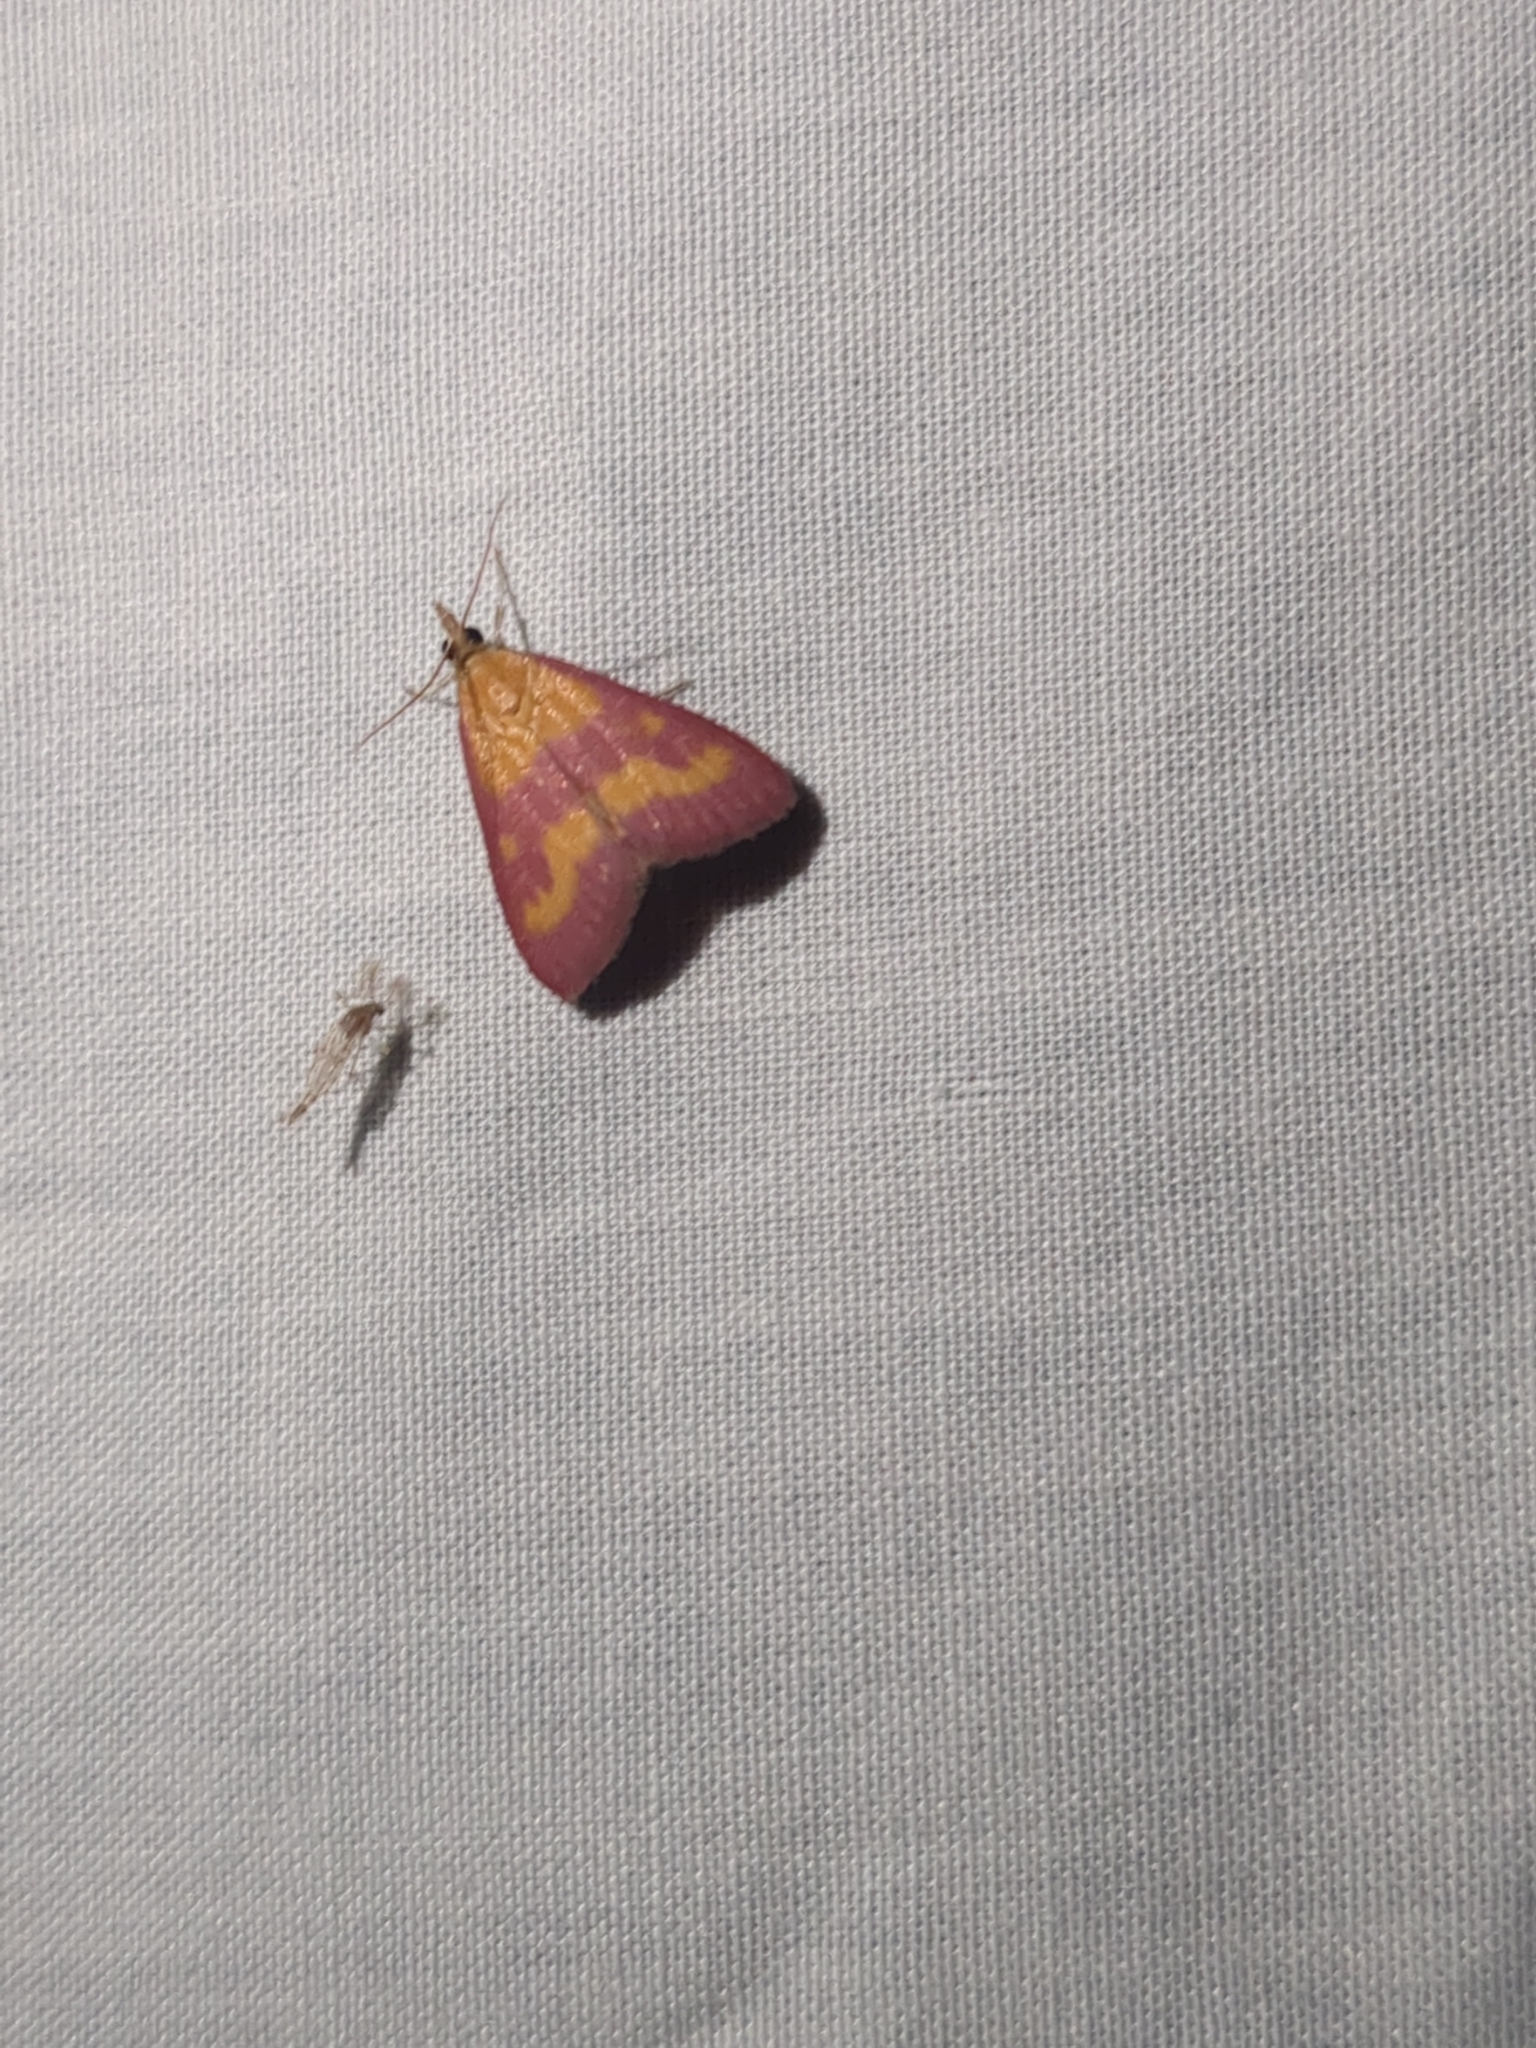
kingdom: Animalia
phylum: Arthropoda
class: Insecta
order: Lepidoptera
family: Crambidae
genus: Pyrausta
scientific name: Pyrausta laticlavia
